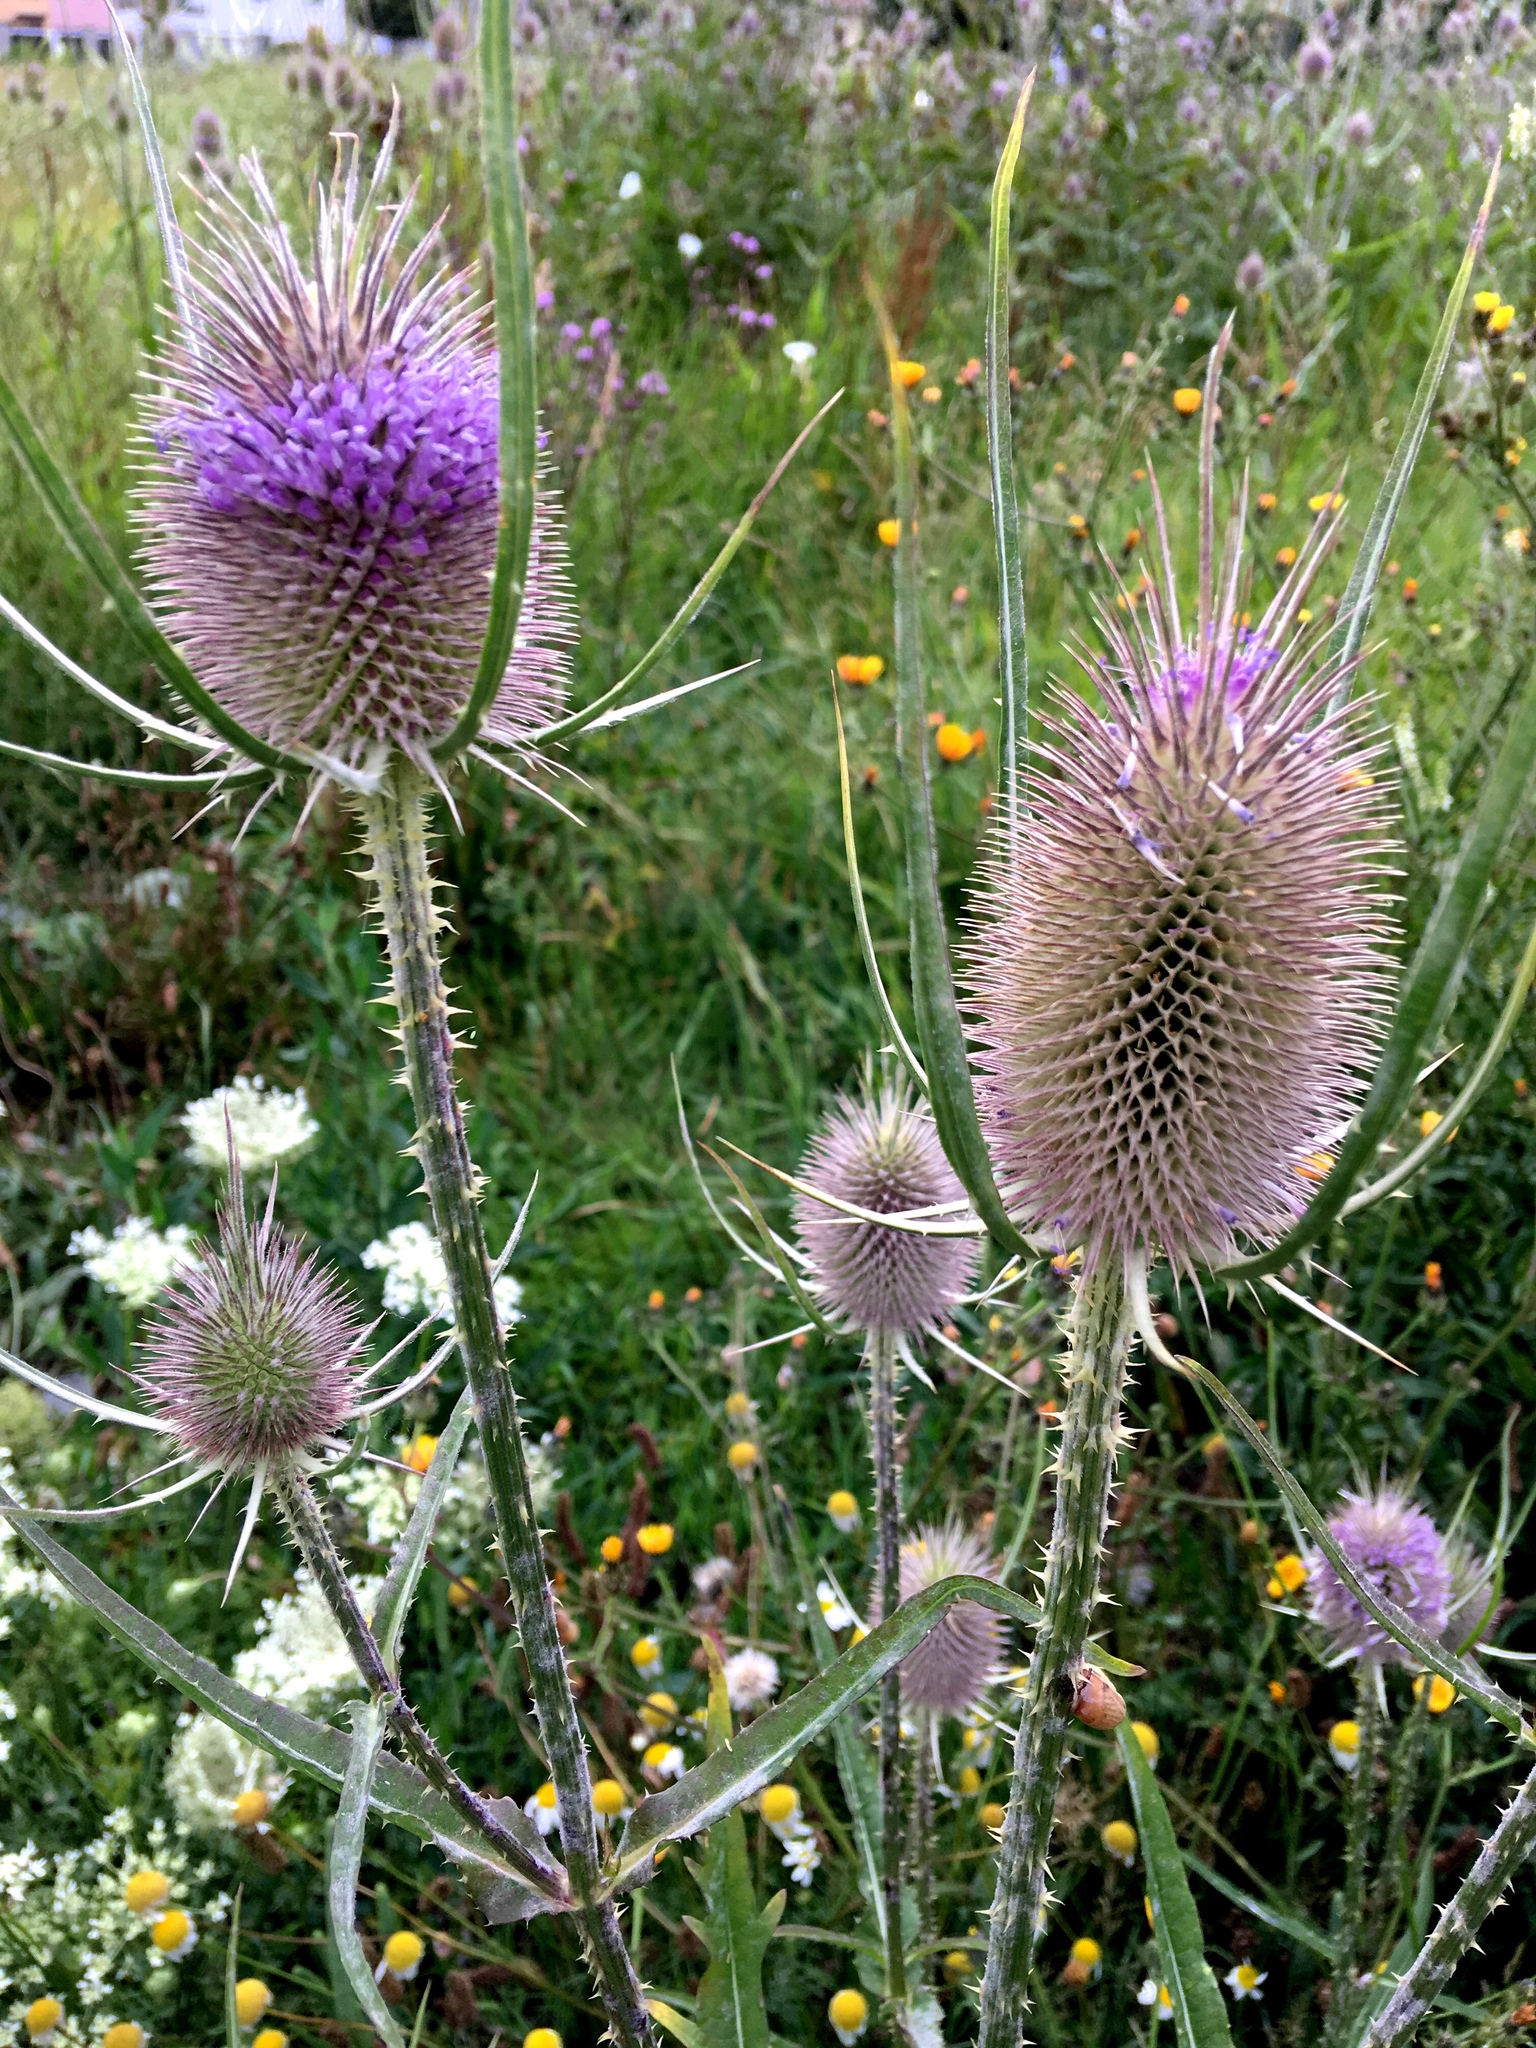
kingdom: Plantae
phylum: Tracheophyta
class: Magnoliopsida
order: Dipsacales
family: Caprifoliaceae
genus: Dipsacus
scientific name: Dipsacus fullonum
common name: Teasel
